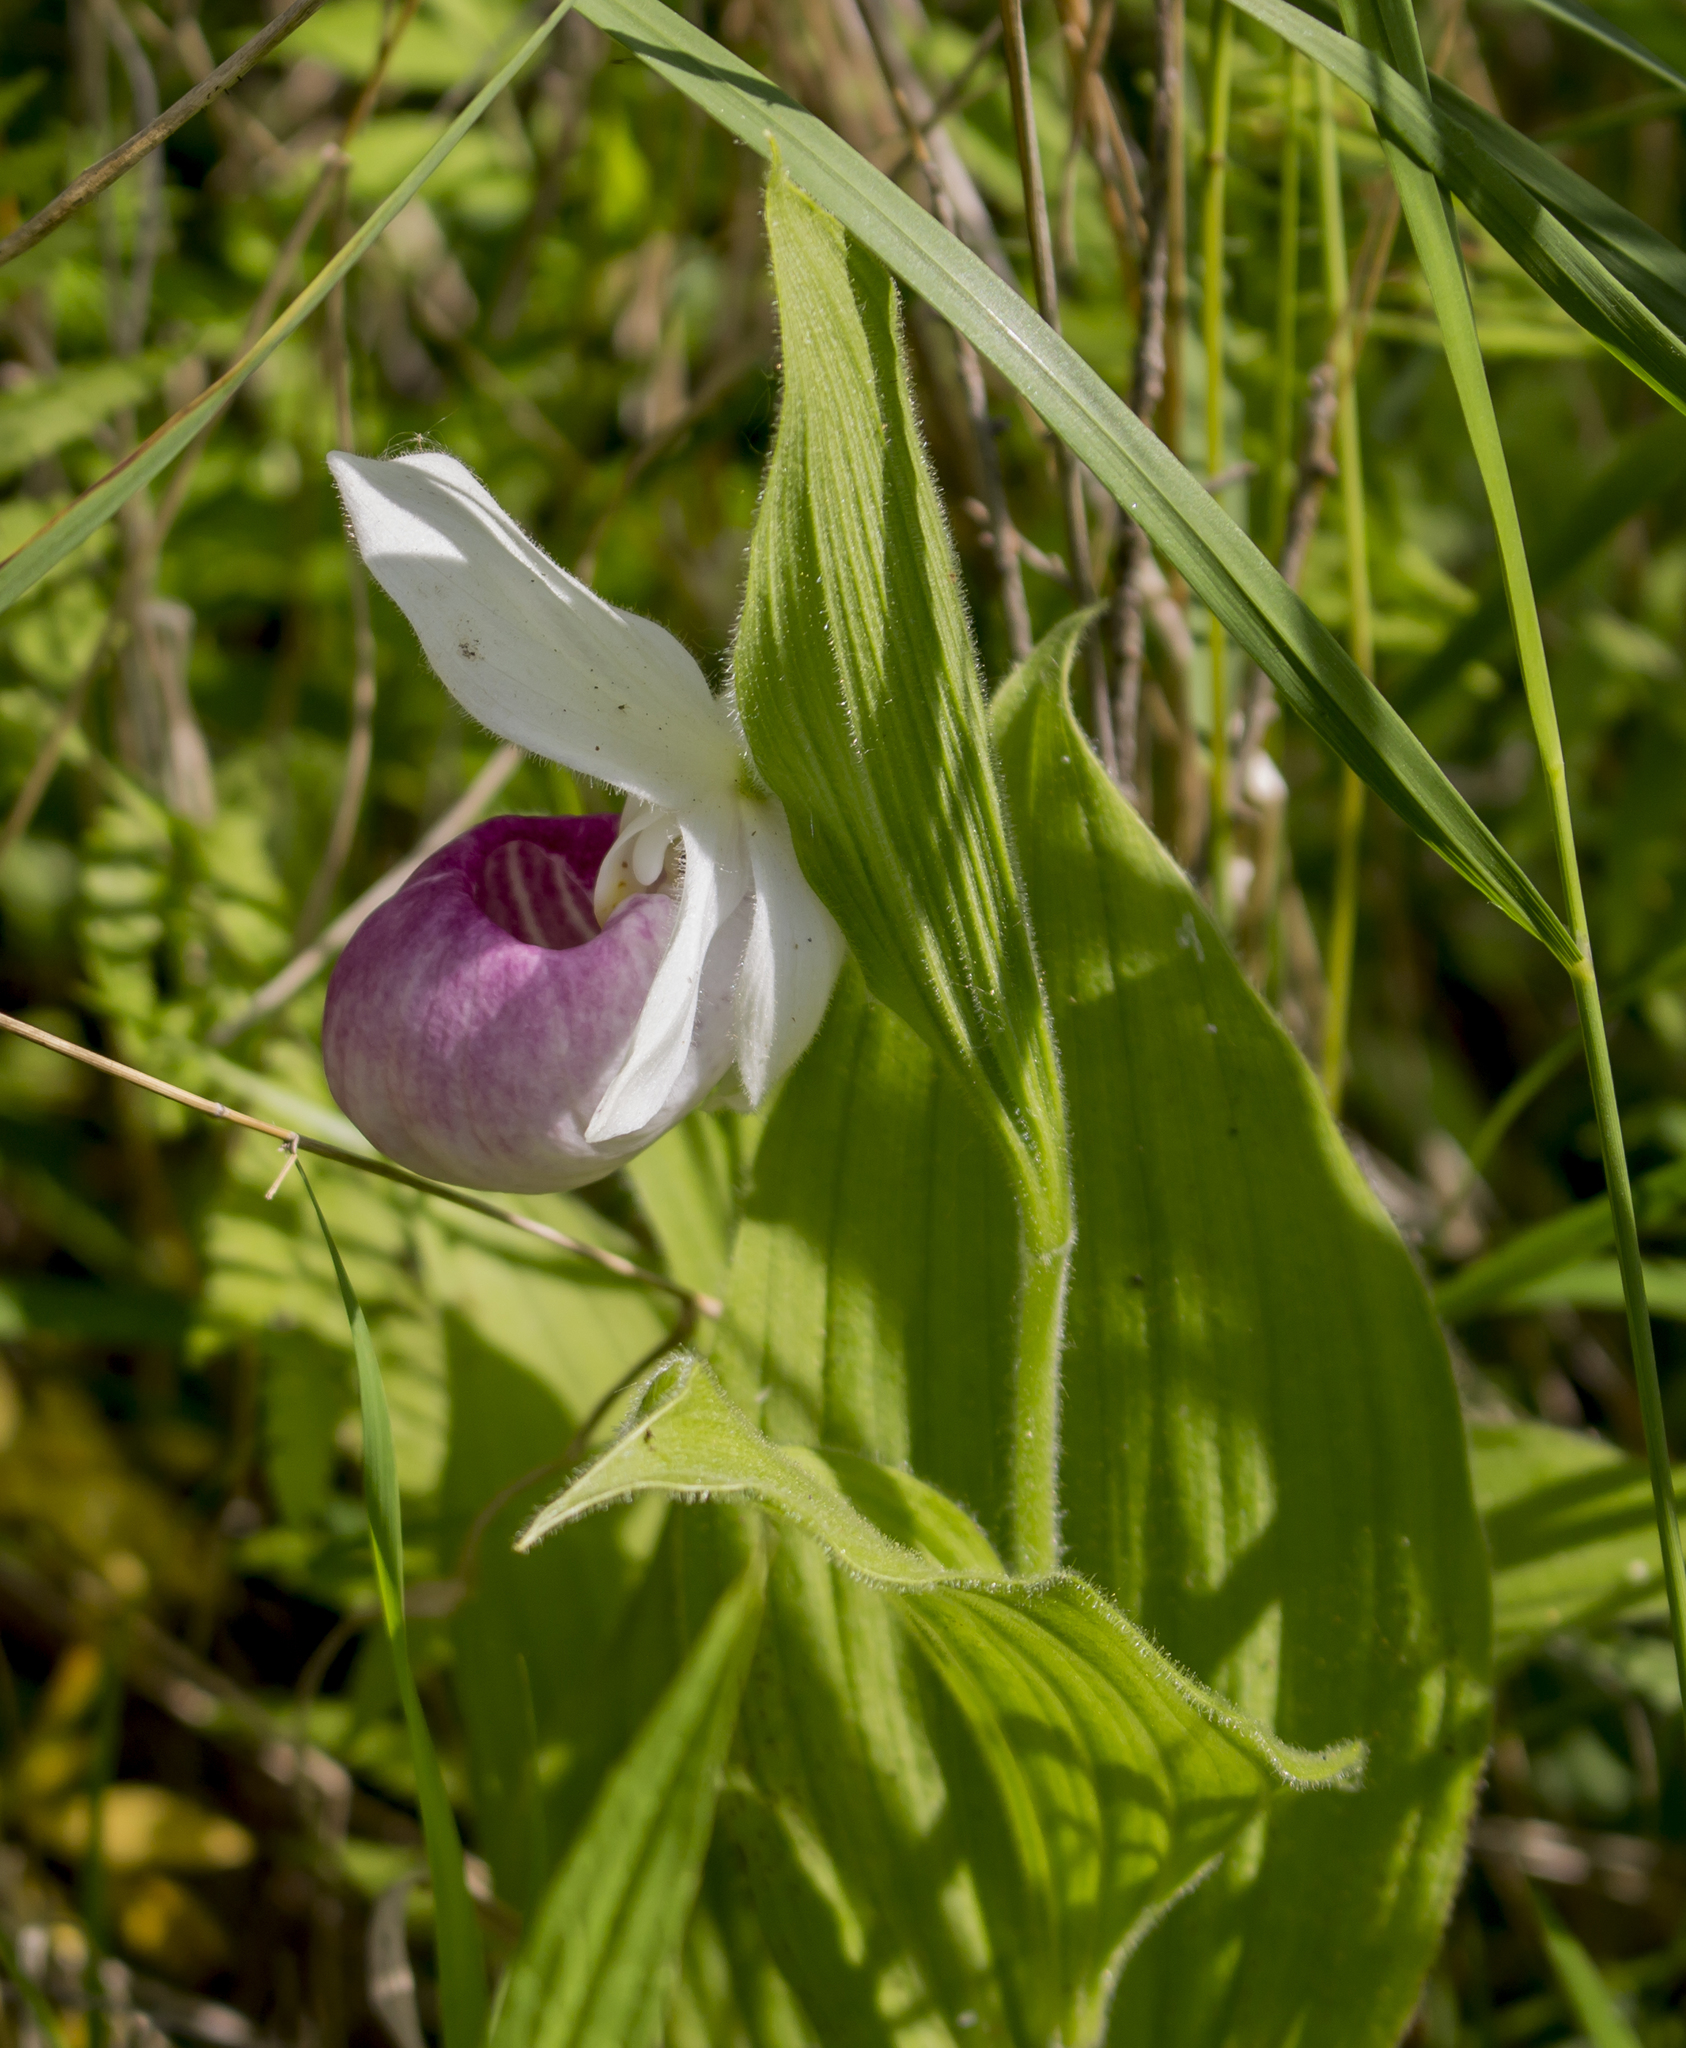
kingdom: Plantae
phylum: Tracheophyta
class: Liliopsida
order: Asparagales
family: Orchidaceae
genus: Cypripedium
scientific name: Cypripedium reginae
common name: Queen lady's-slipper
